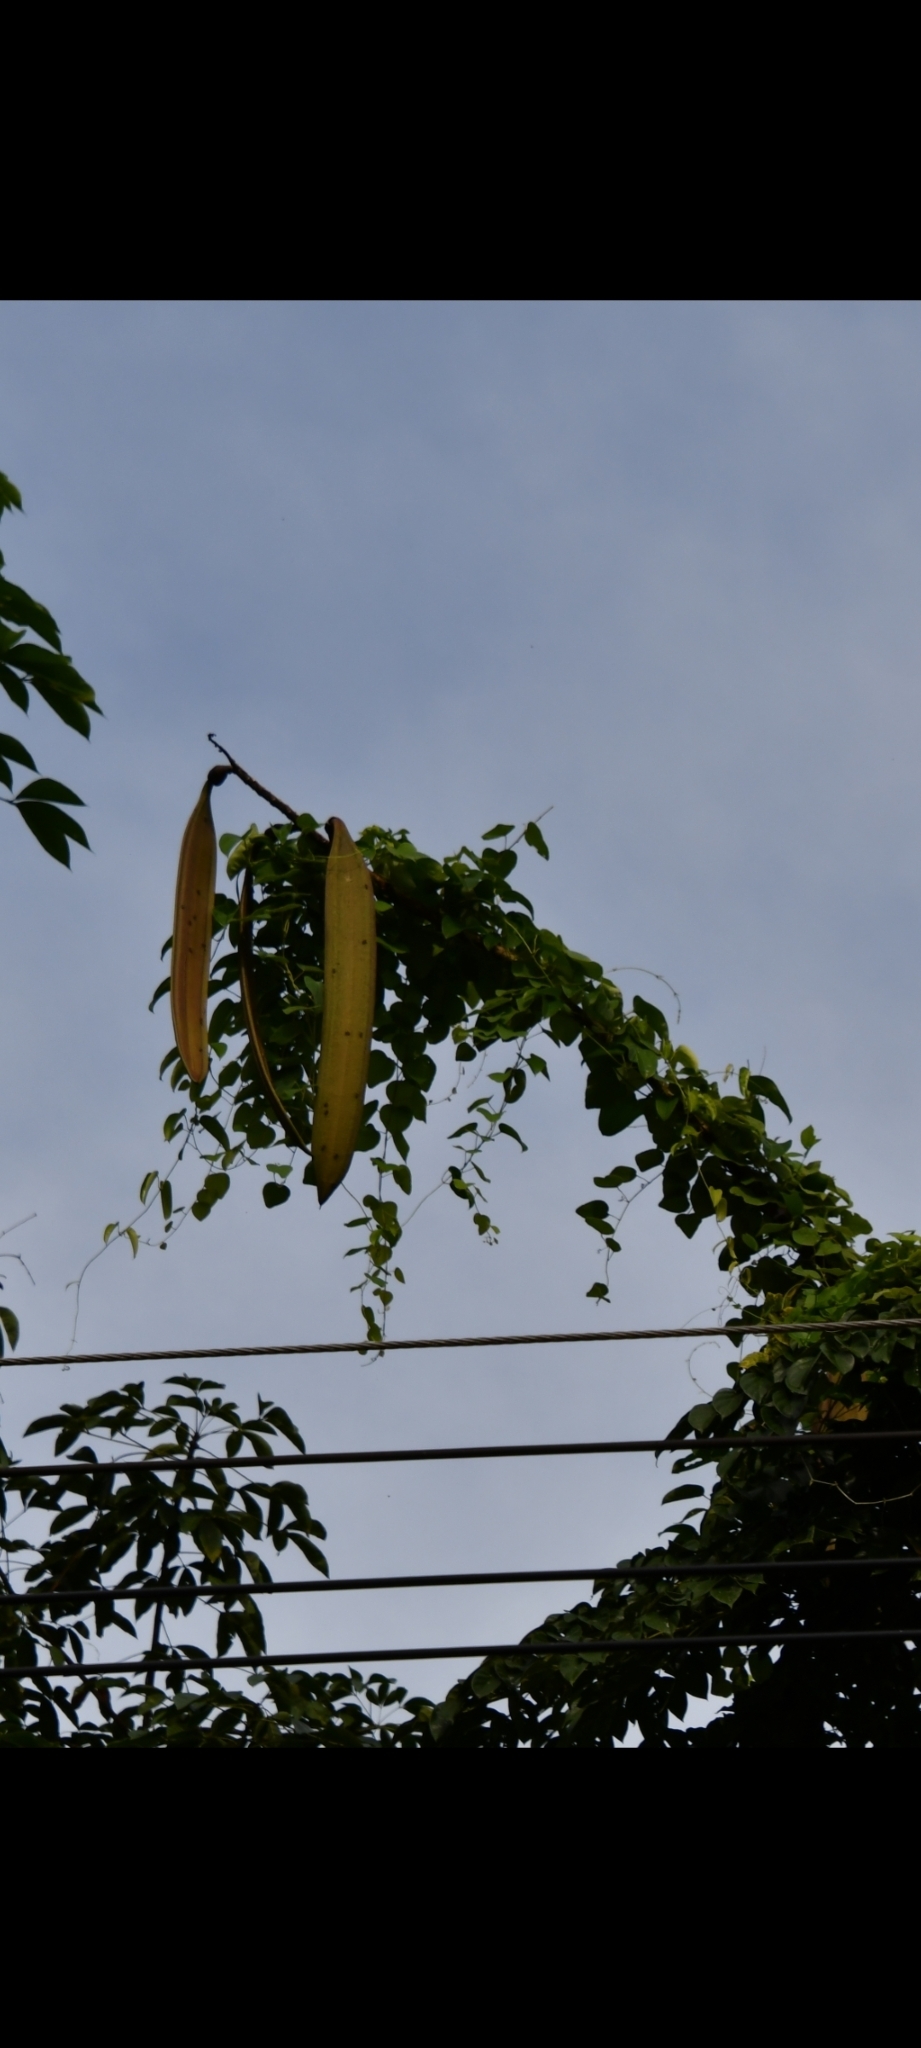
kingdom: Plantae
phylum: Tracheophyta
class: Magnoliopsida
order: Lamiales
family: Bignoniaceae
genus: Oroxylum
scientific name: Oroxylum indicum
